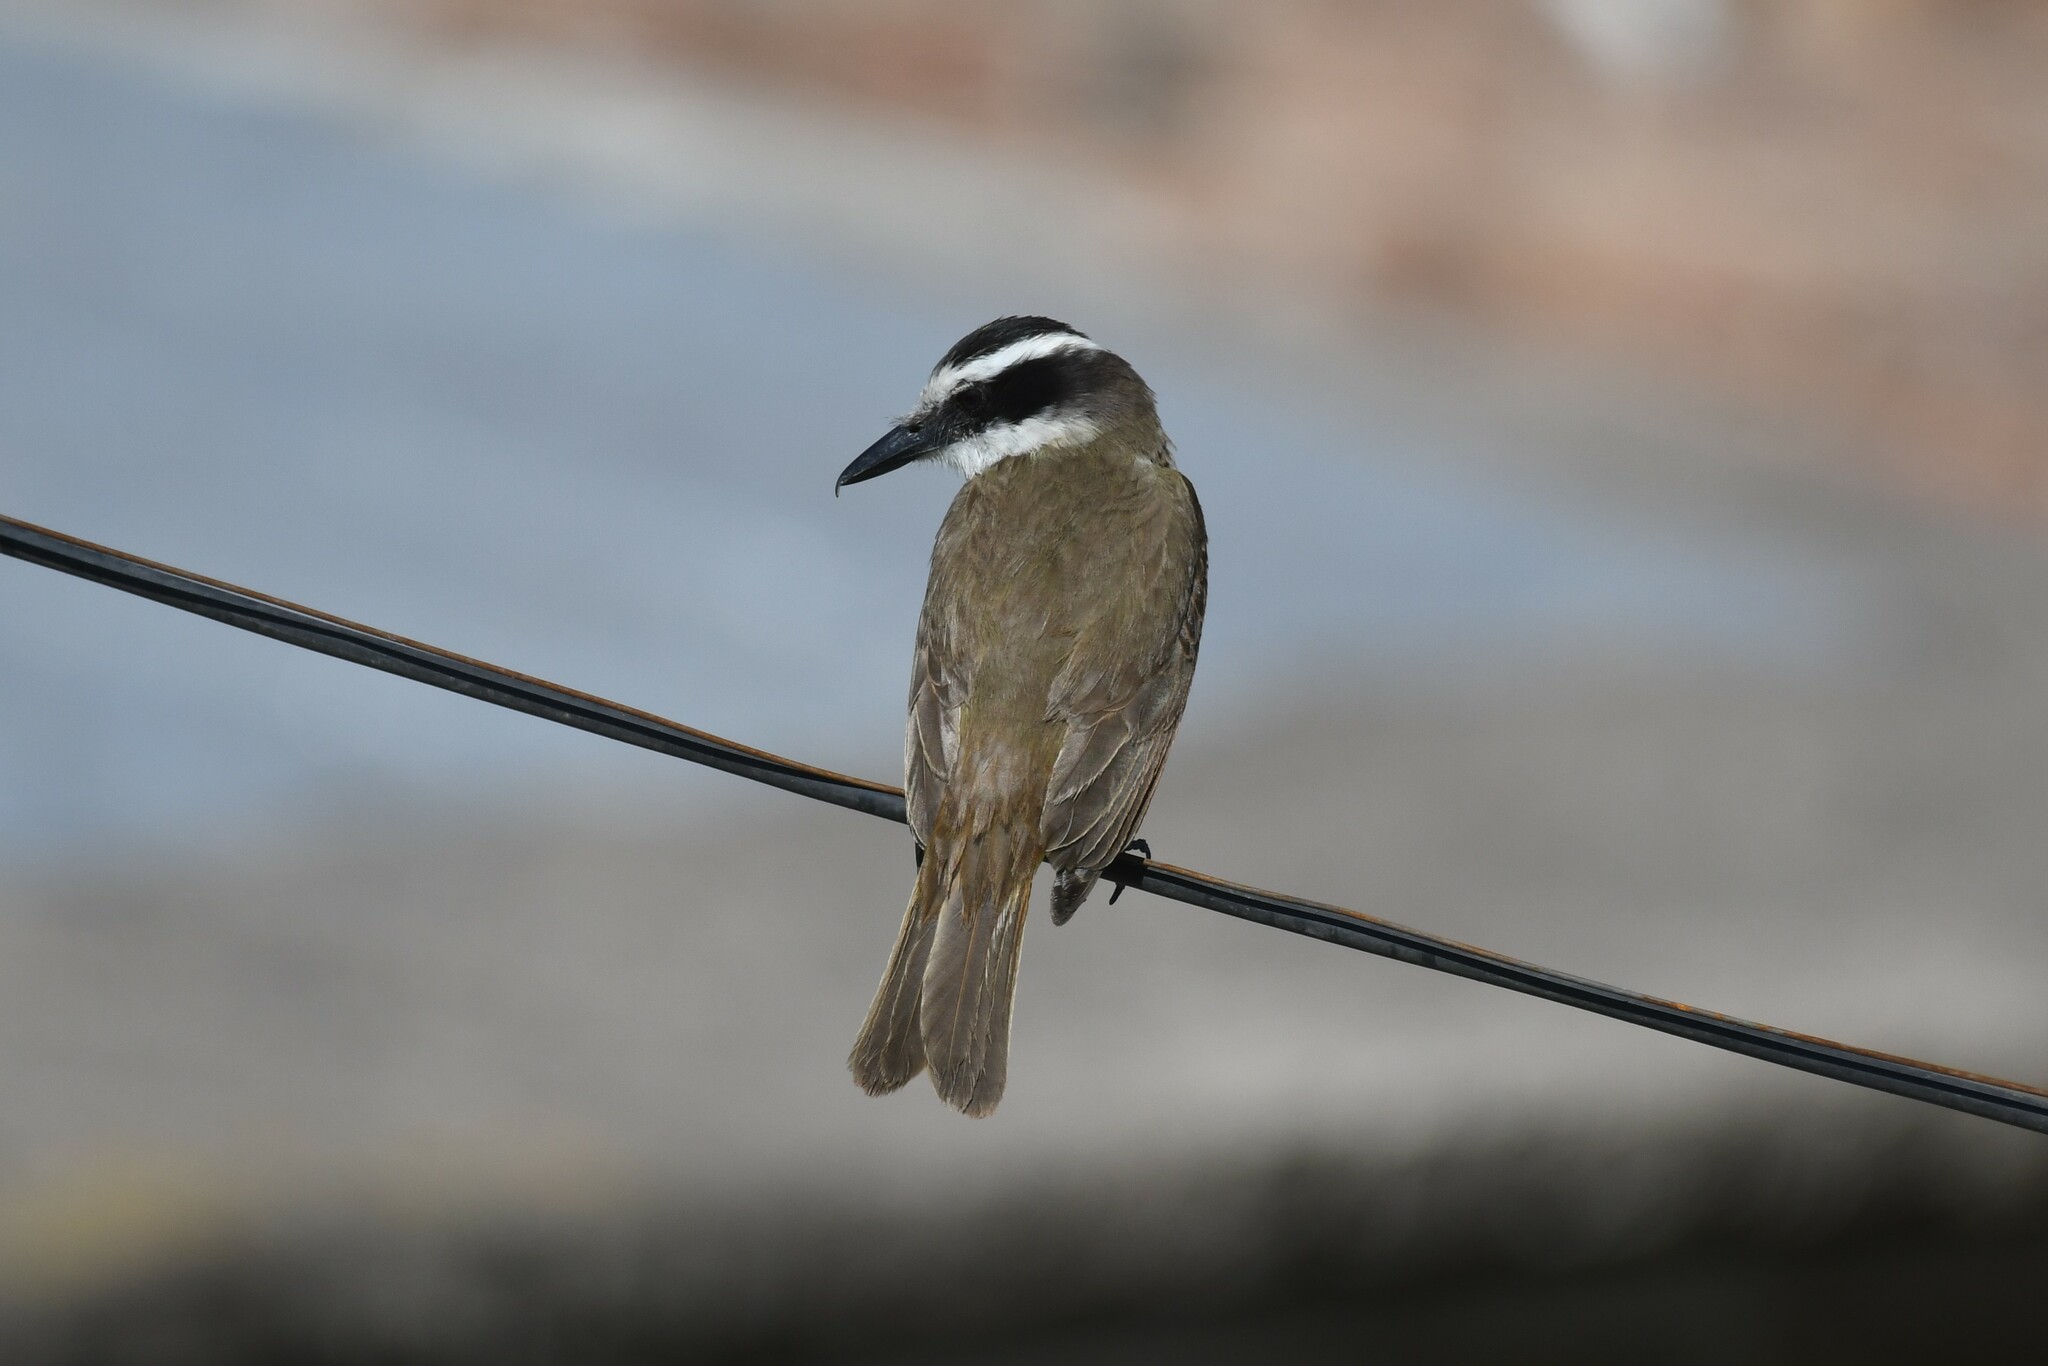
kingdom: Animalia
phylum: Chordata
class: Aves
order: Passeriformes
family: Tyrannidae
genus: Pitangus
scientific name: Pitangus sulphuratus
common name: Great kiskadee
